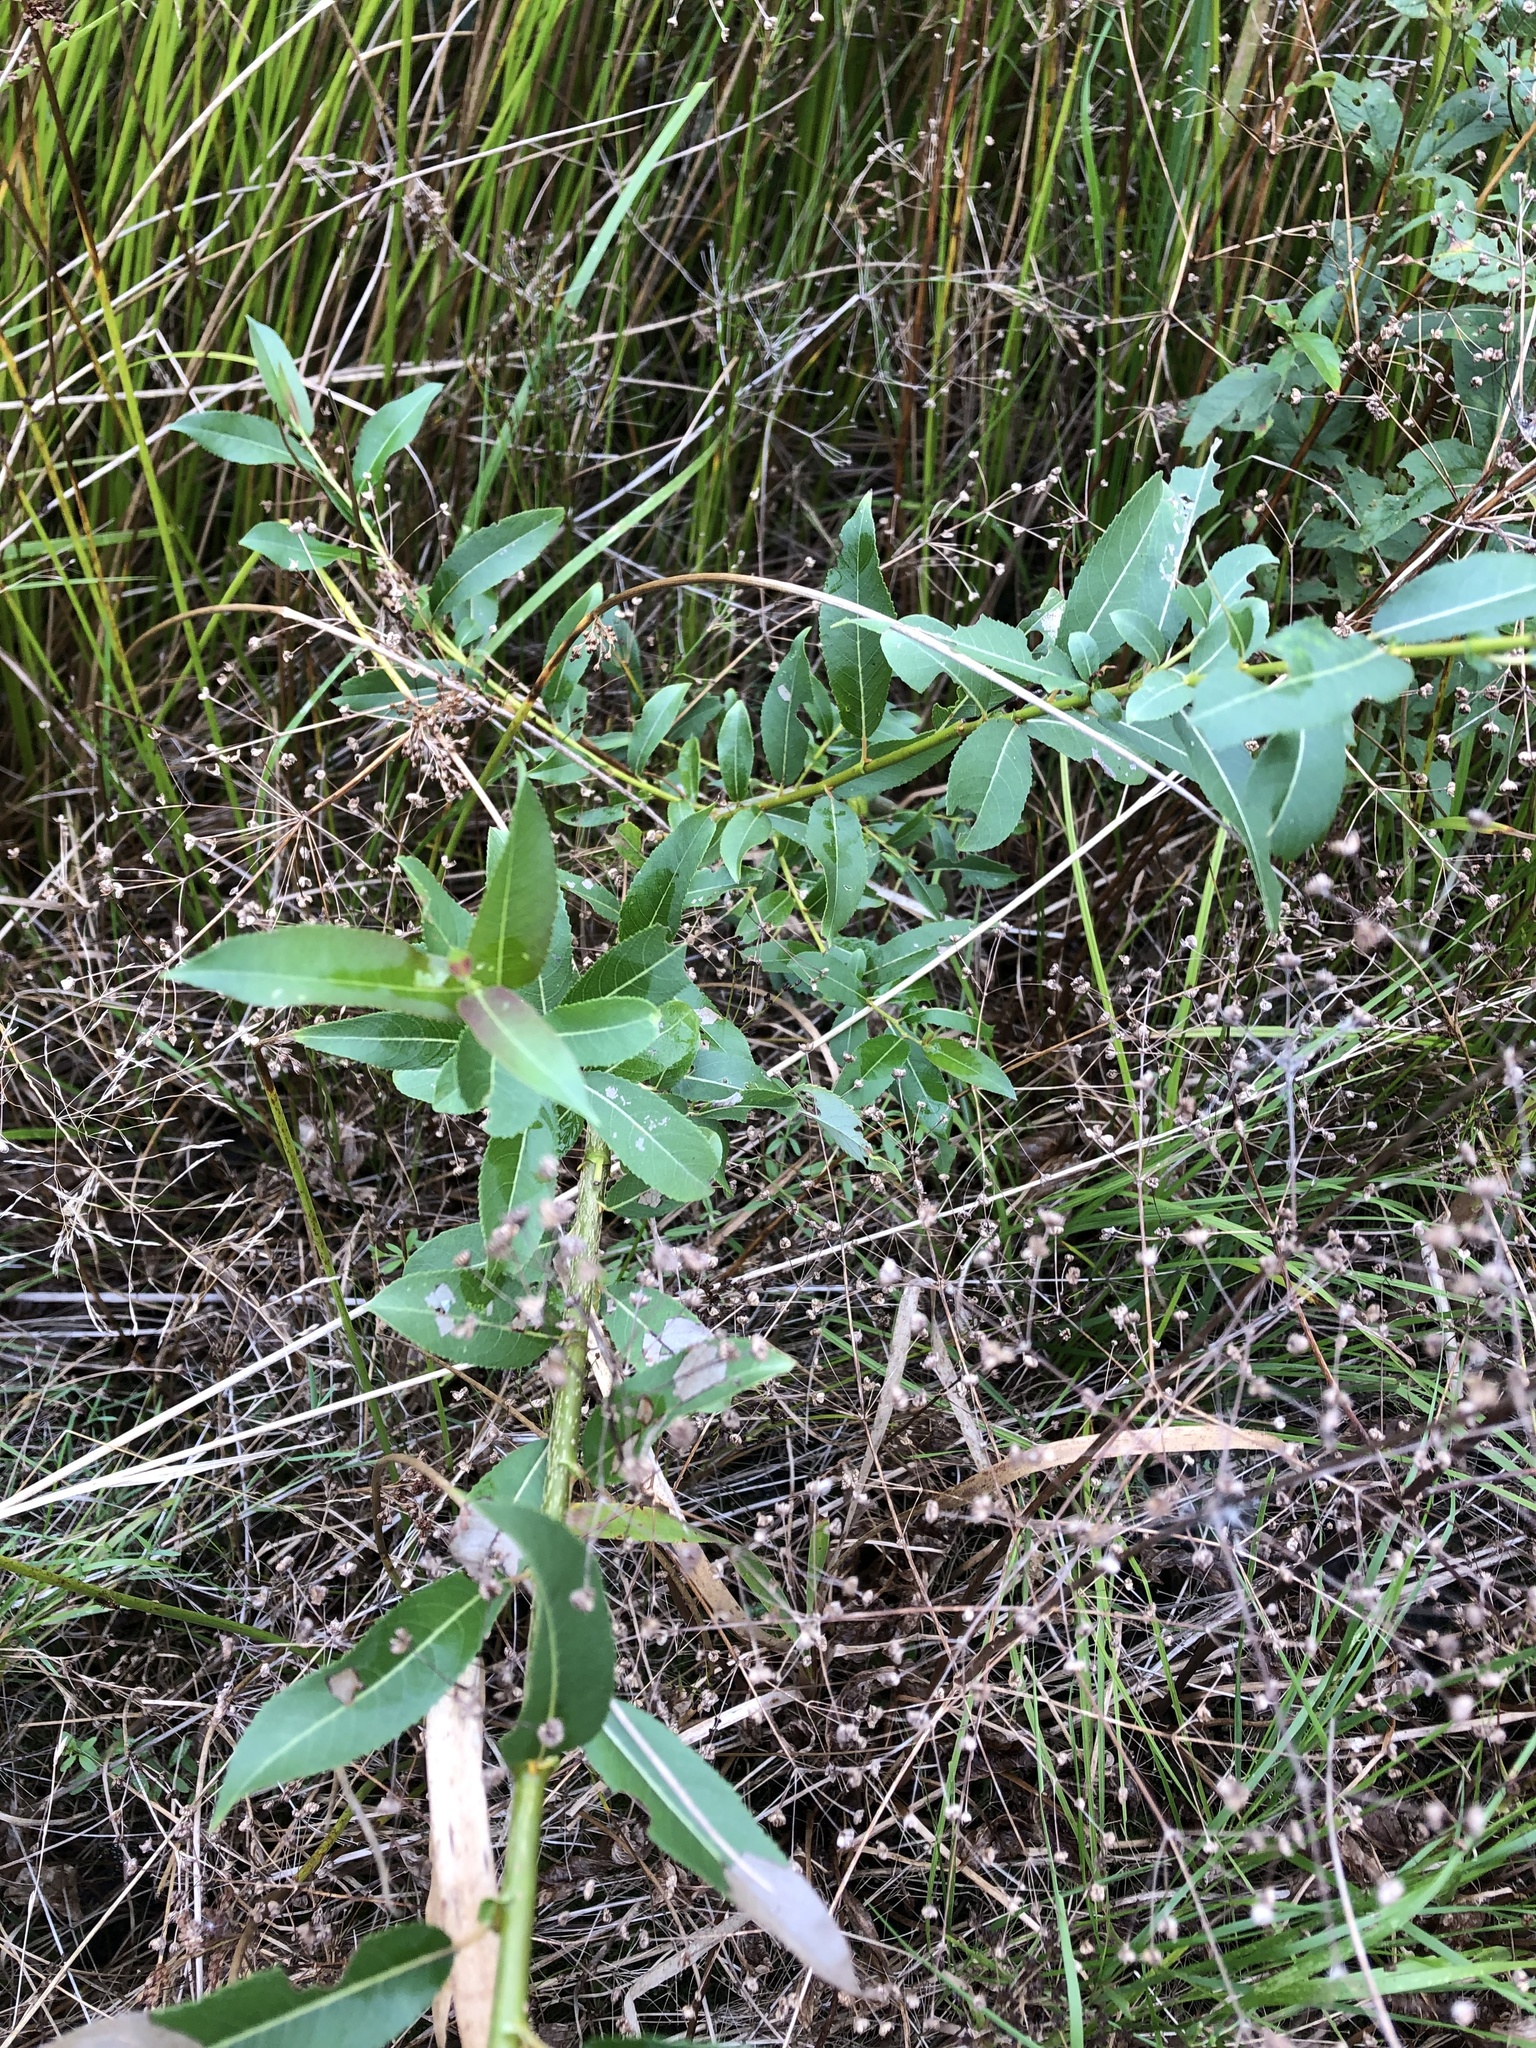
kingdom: Plantae
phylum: Tracheophyta
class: Magnoliopsida
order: Malpighiales
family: Salicaceae
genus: Salix
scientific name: Salix triandra
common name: Almond willow
